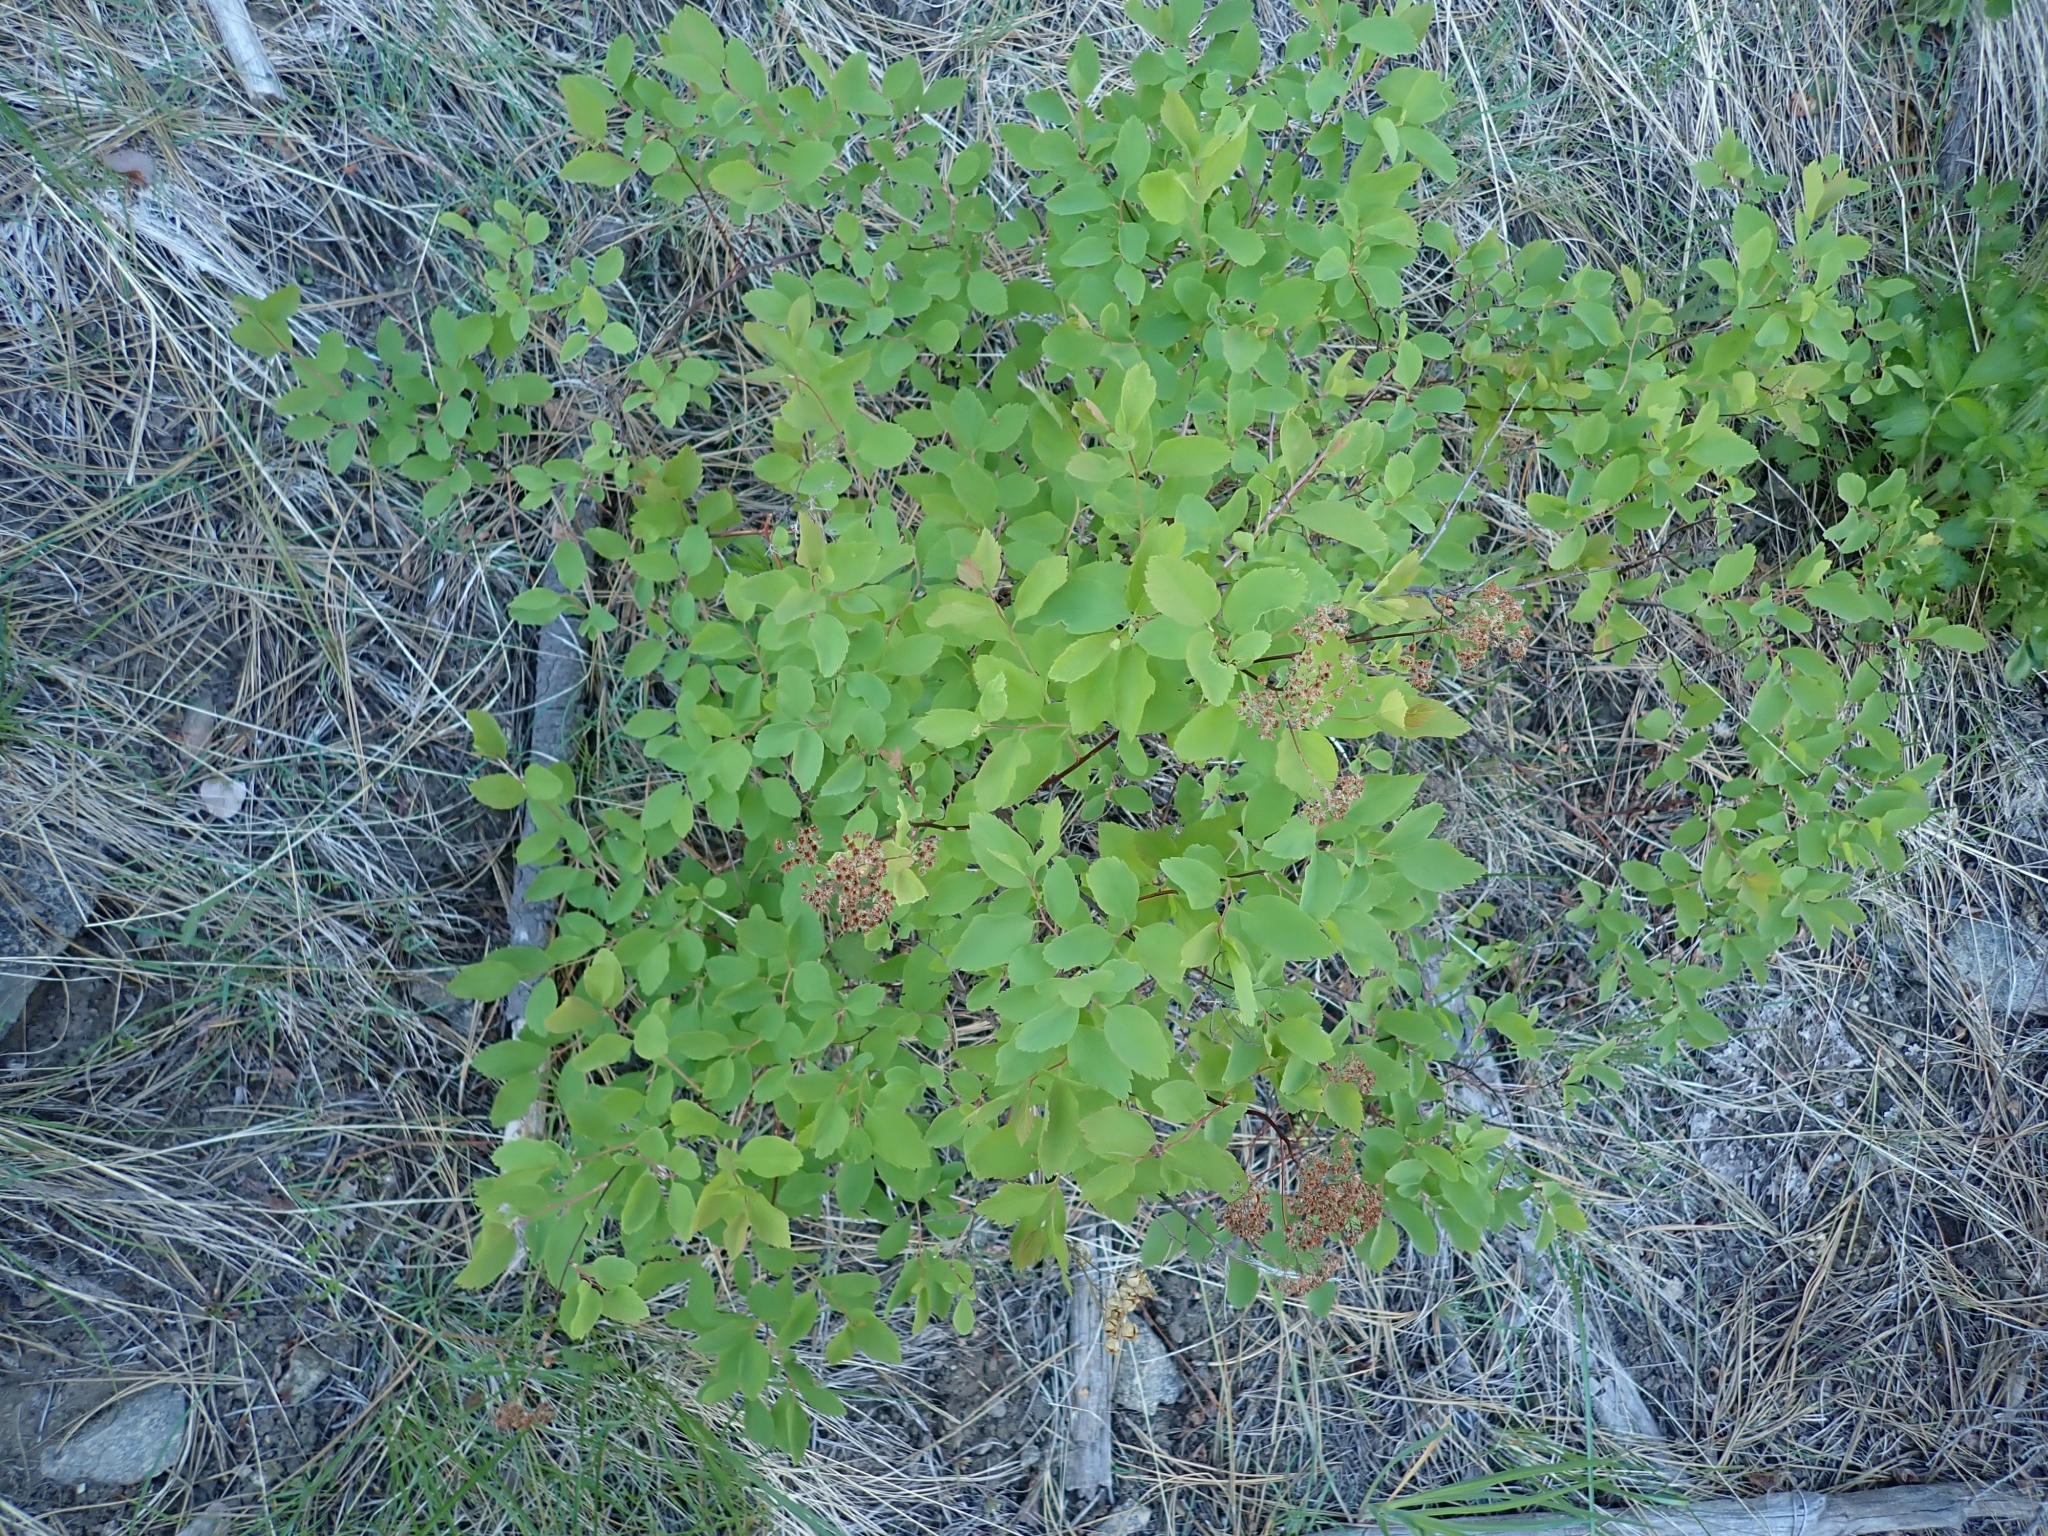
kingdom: Plantae
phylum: Tracheophyta
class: Magnoliopsida
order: Rosales
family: Rosaceae
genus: Spiraea
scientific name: Spiraea lucida
